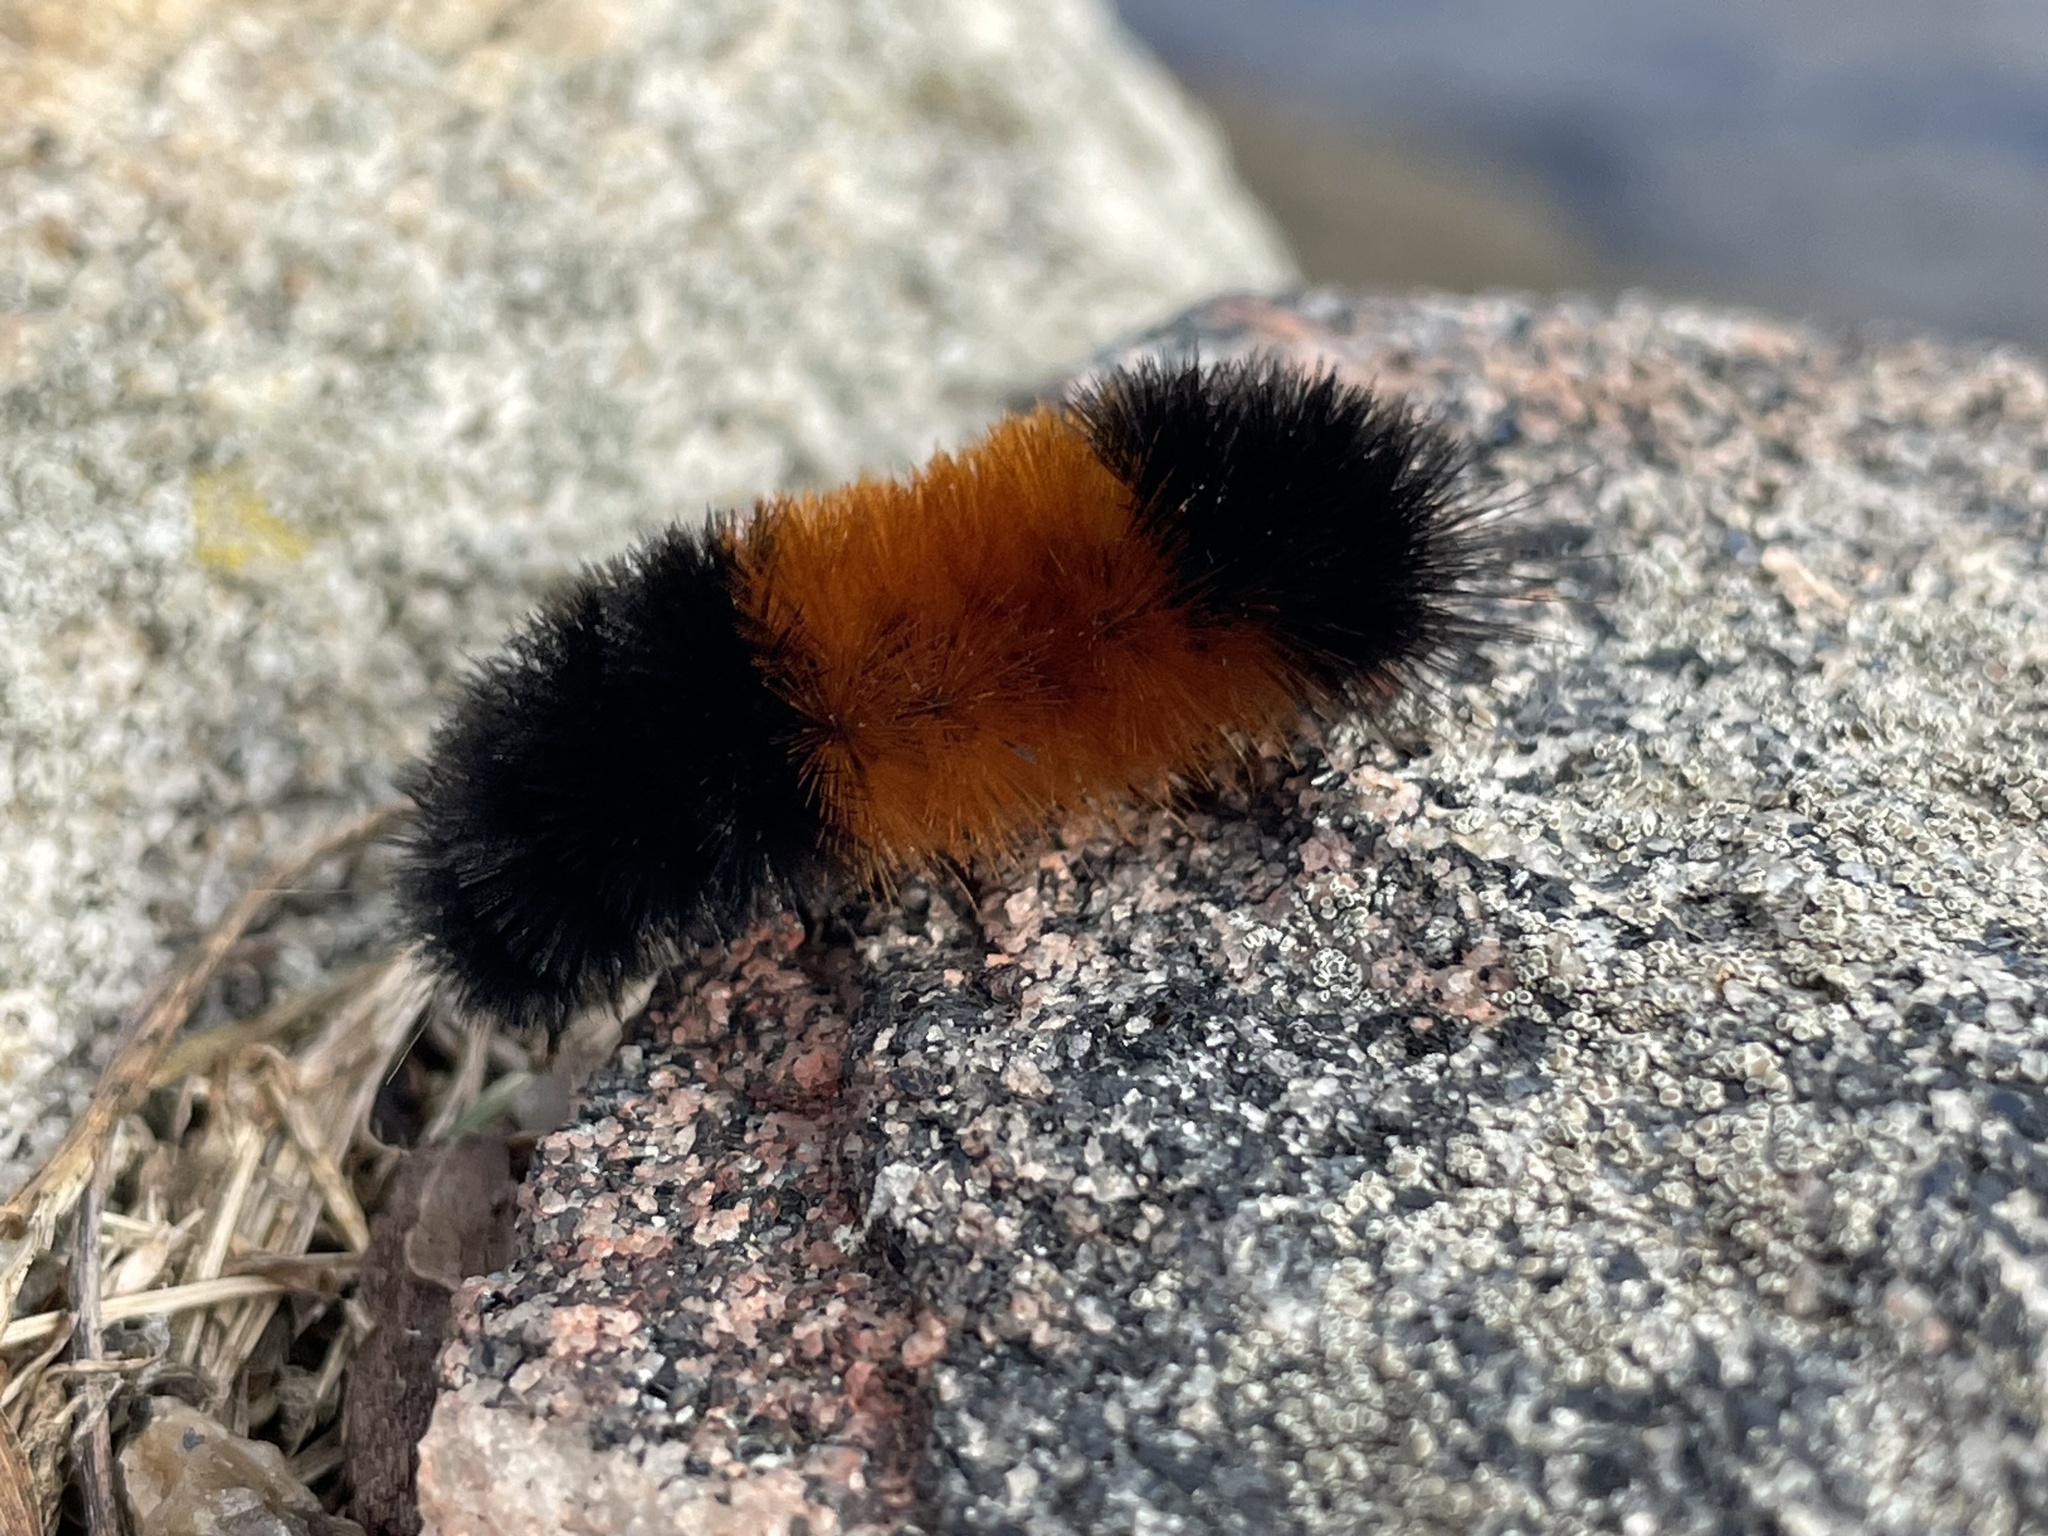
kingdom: Animalia
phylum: Arthropoda
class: Insecta
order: Lepidoptera
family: Erebidae
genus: Pyrrharctia
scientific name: Pyrrharctia isabella
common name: Isabella tiger moth
